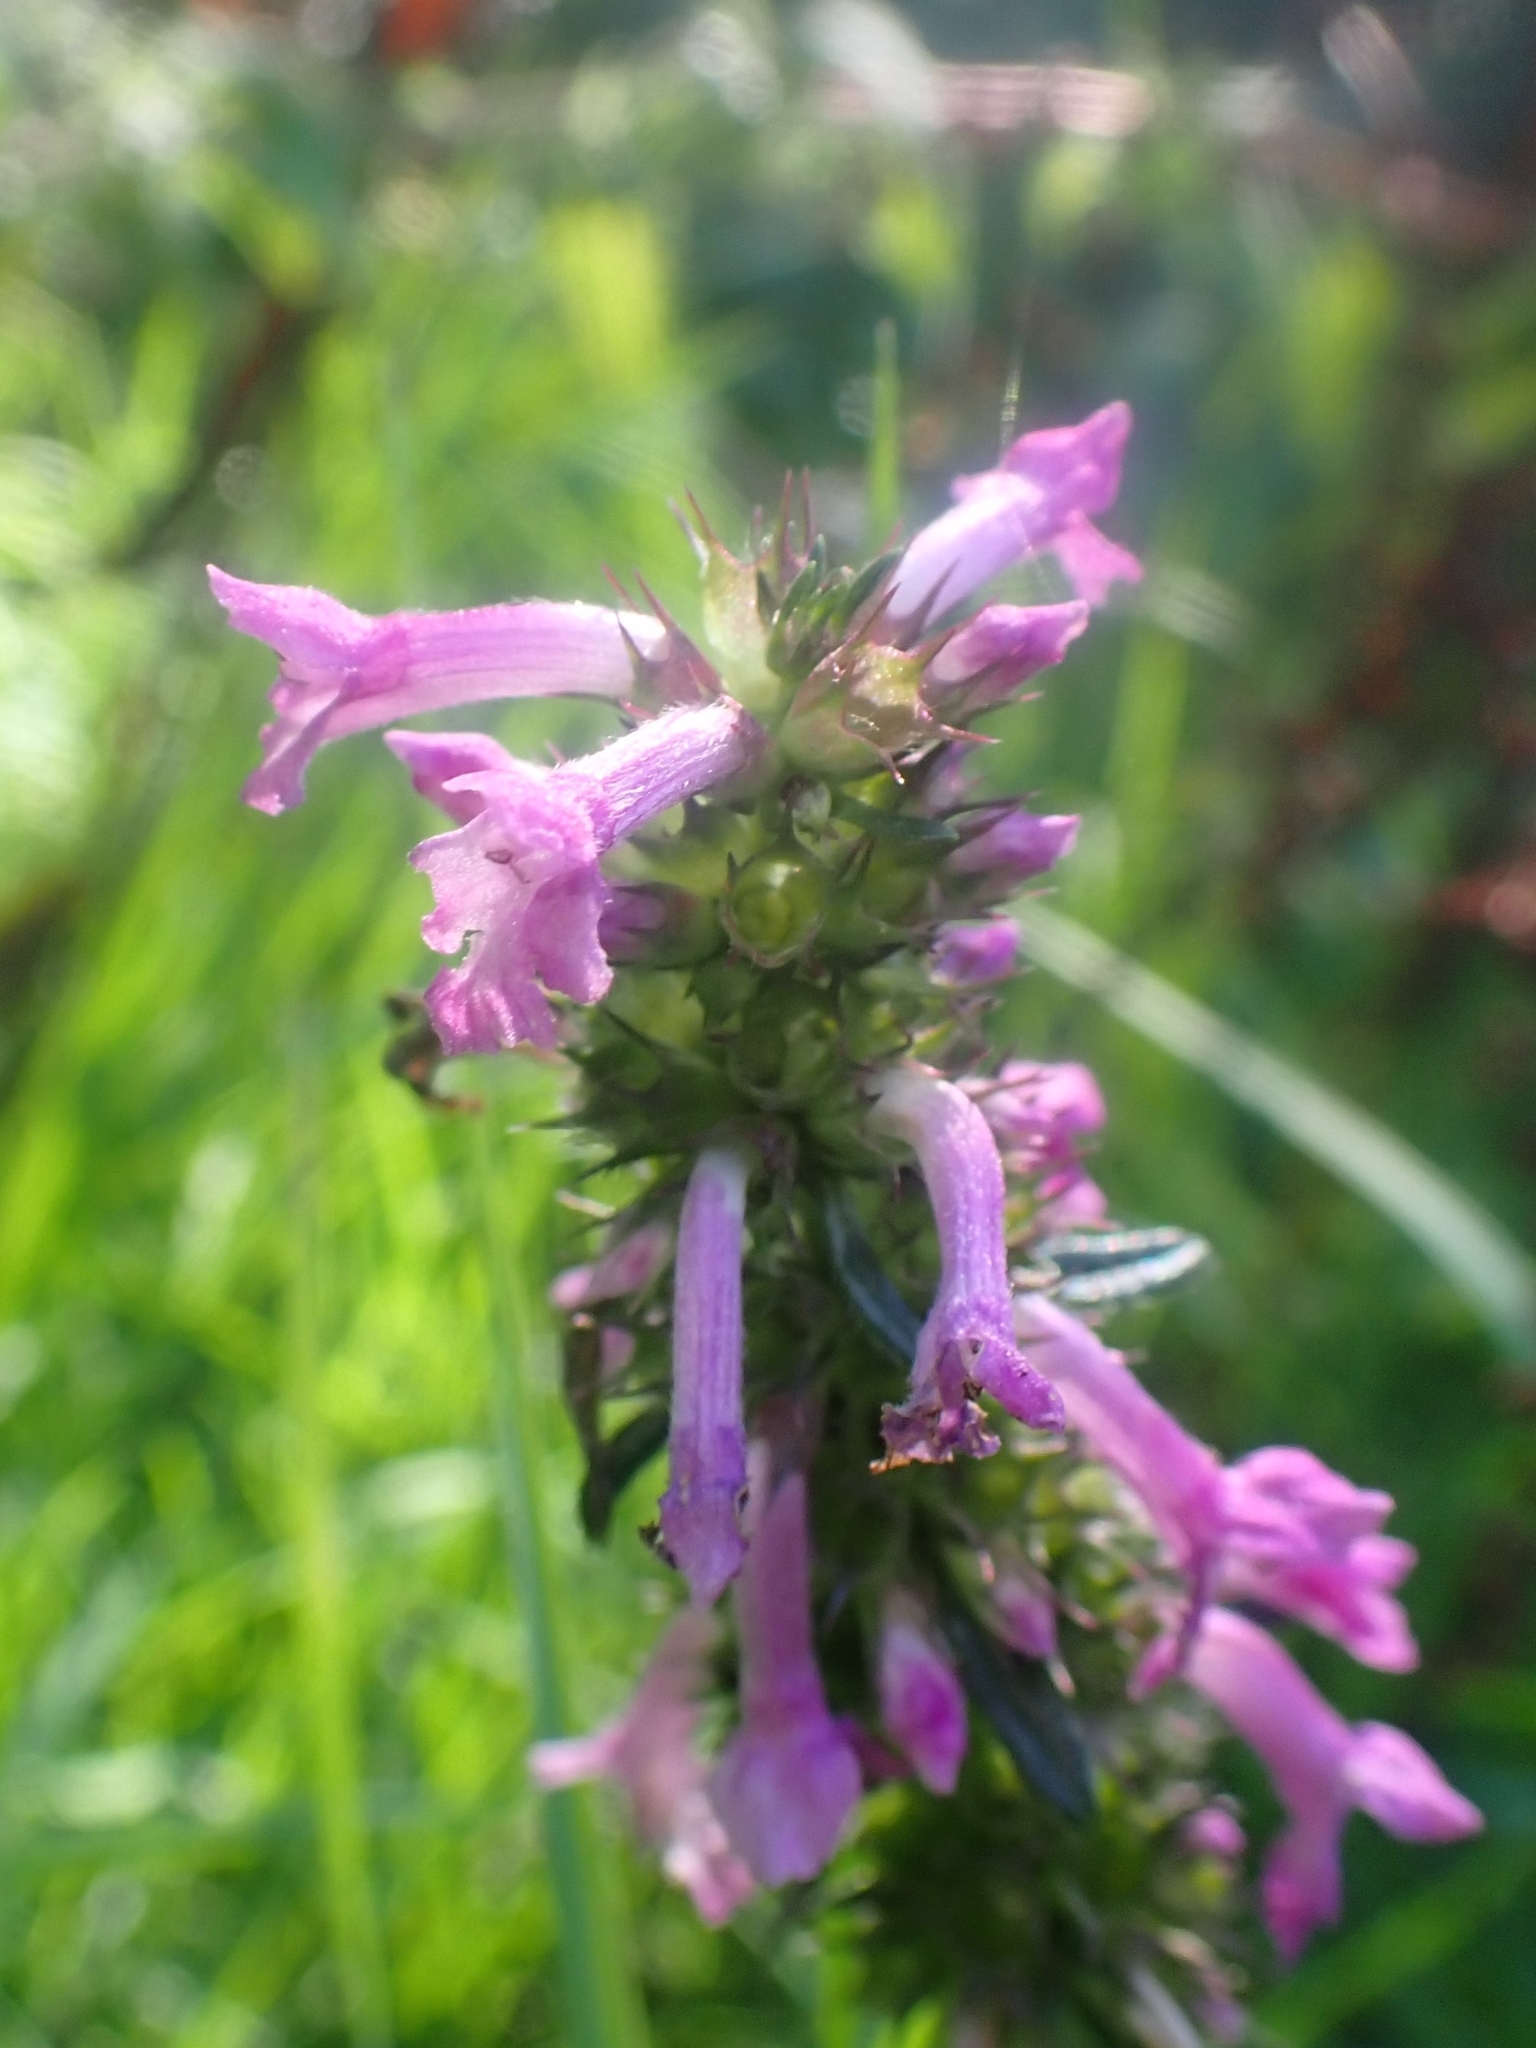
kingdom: Plantae
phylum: Tracheophyta
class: Magnoliopsida
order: Lamiales
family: Lamiaceae
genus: Betonica
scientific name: Betonica officinalis
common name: Bishop's-wort
